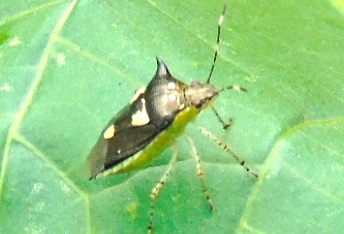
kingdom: Animalia
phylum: Arthropoda
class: Insecta
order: Hemiptera
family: Pentatomidae
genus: Mormidea
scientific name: Mormidea
